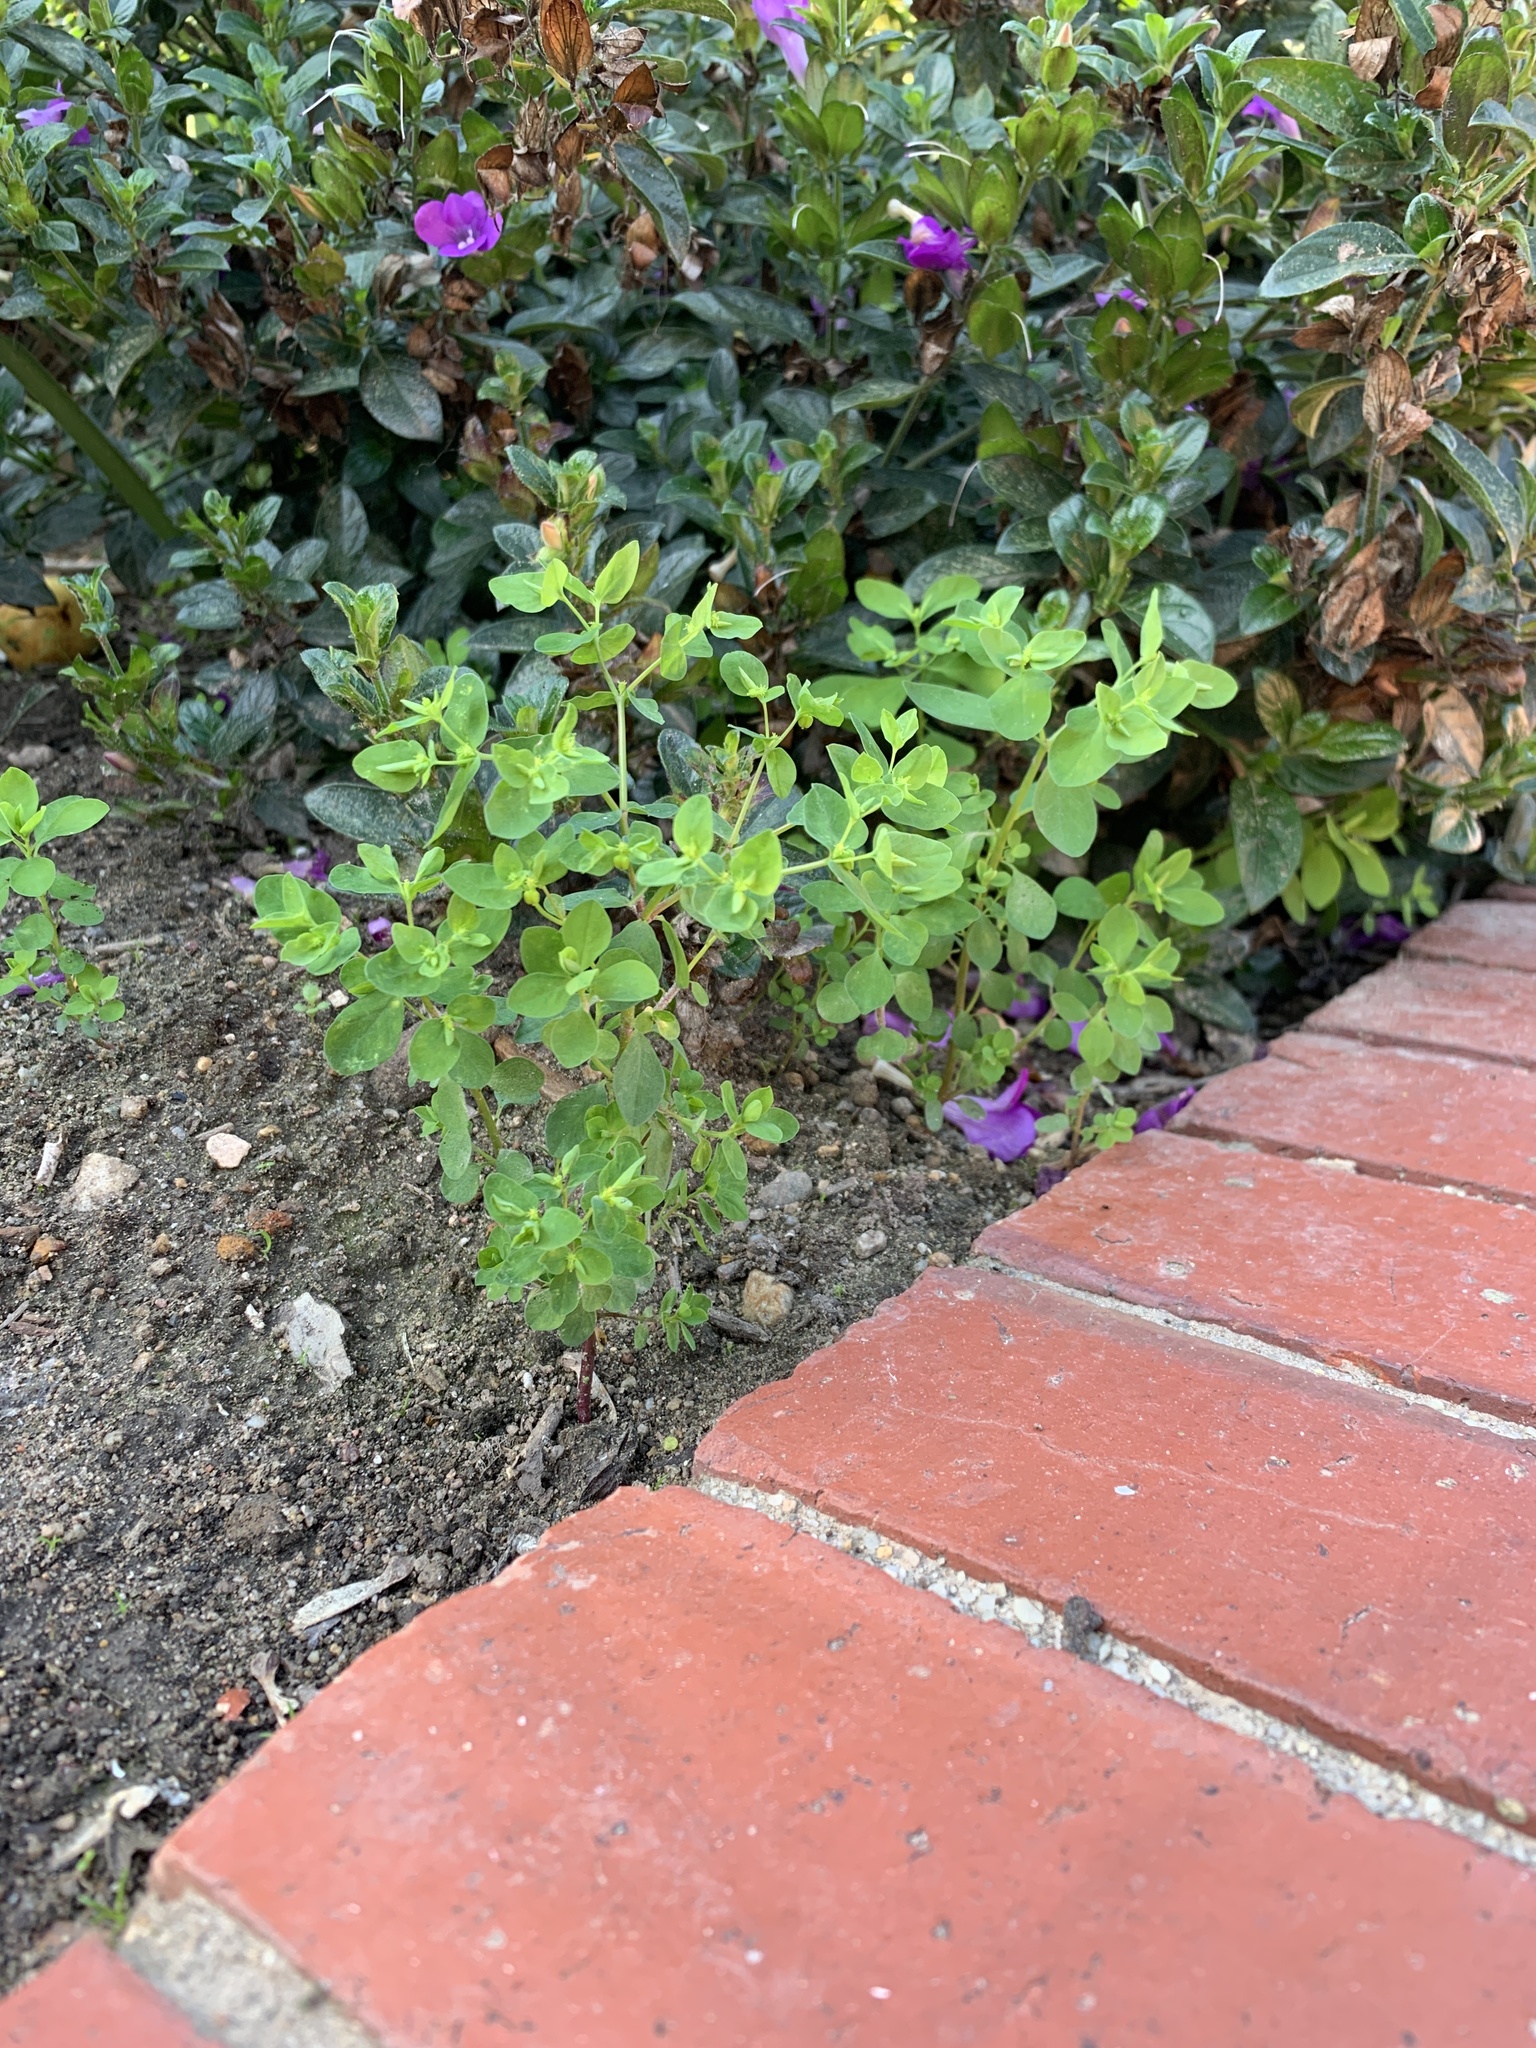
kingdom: Plantae
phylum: Tracheophyta
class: Magnoliopsida
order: Malpighiales
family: Euphorbiaceae
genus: Euphorbia
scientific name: Euphorbia peplus
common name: Petty spurge
